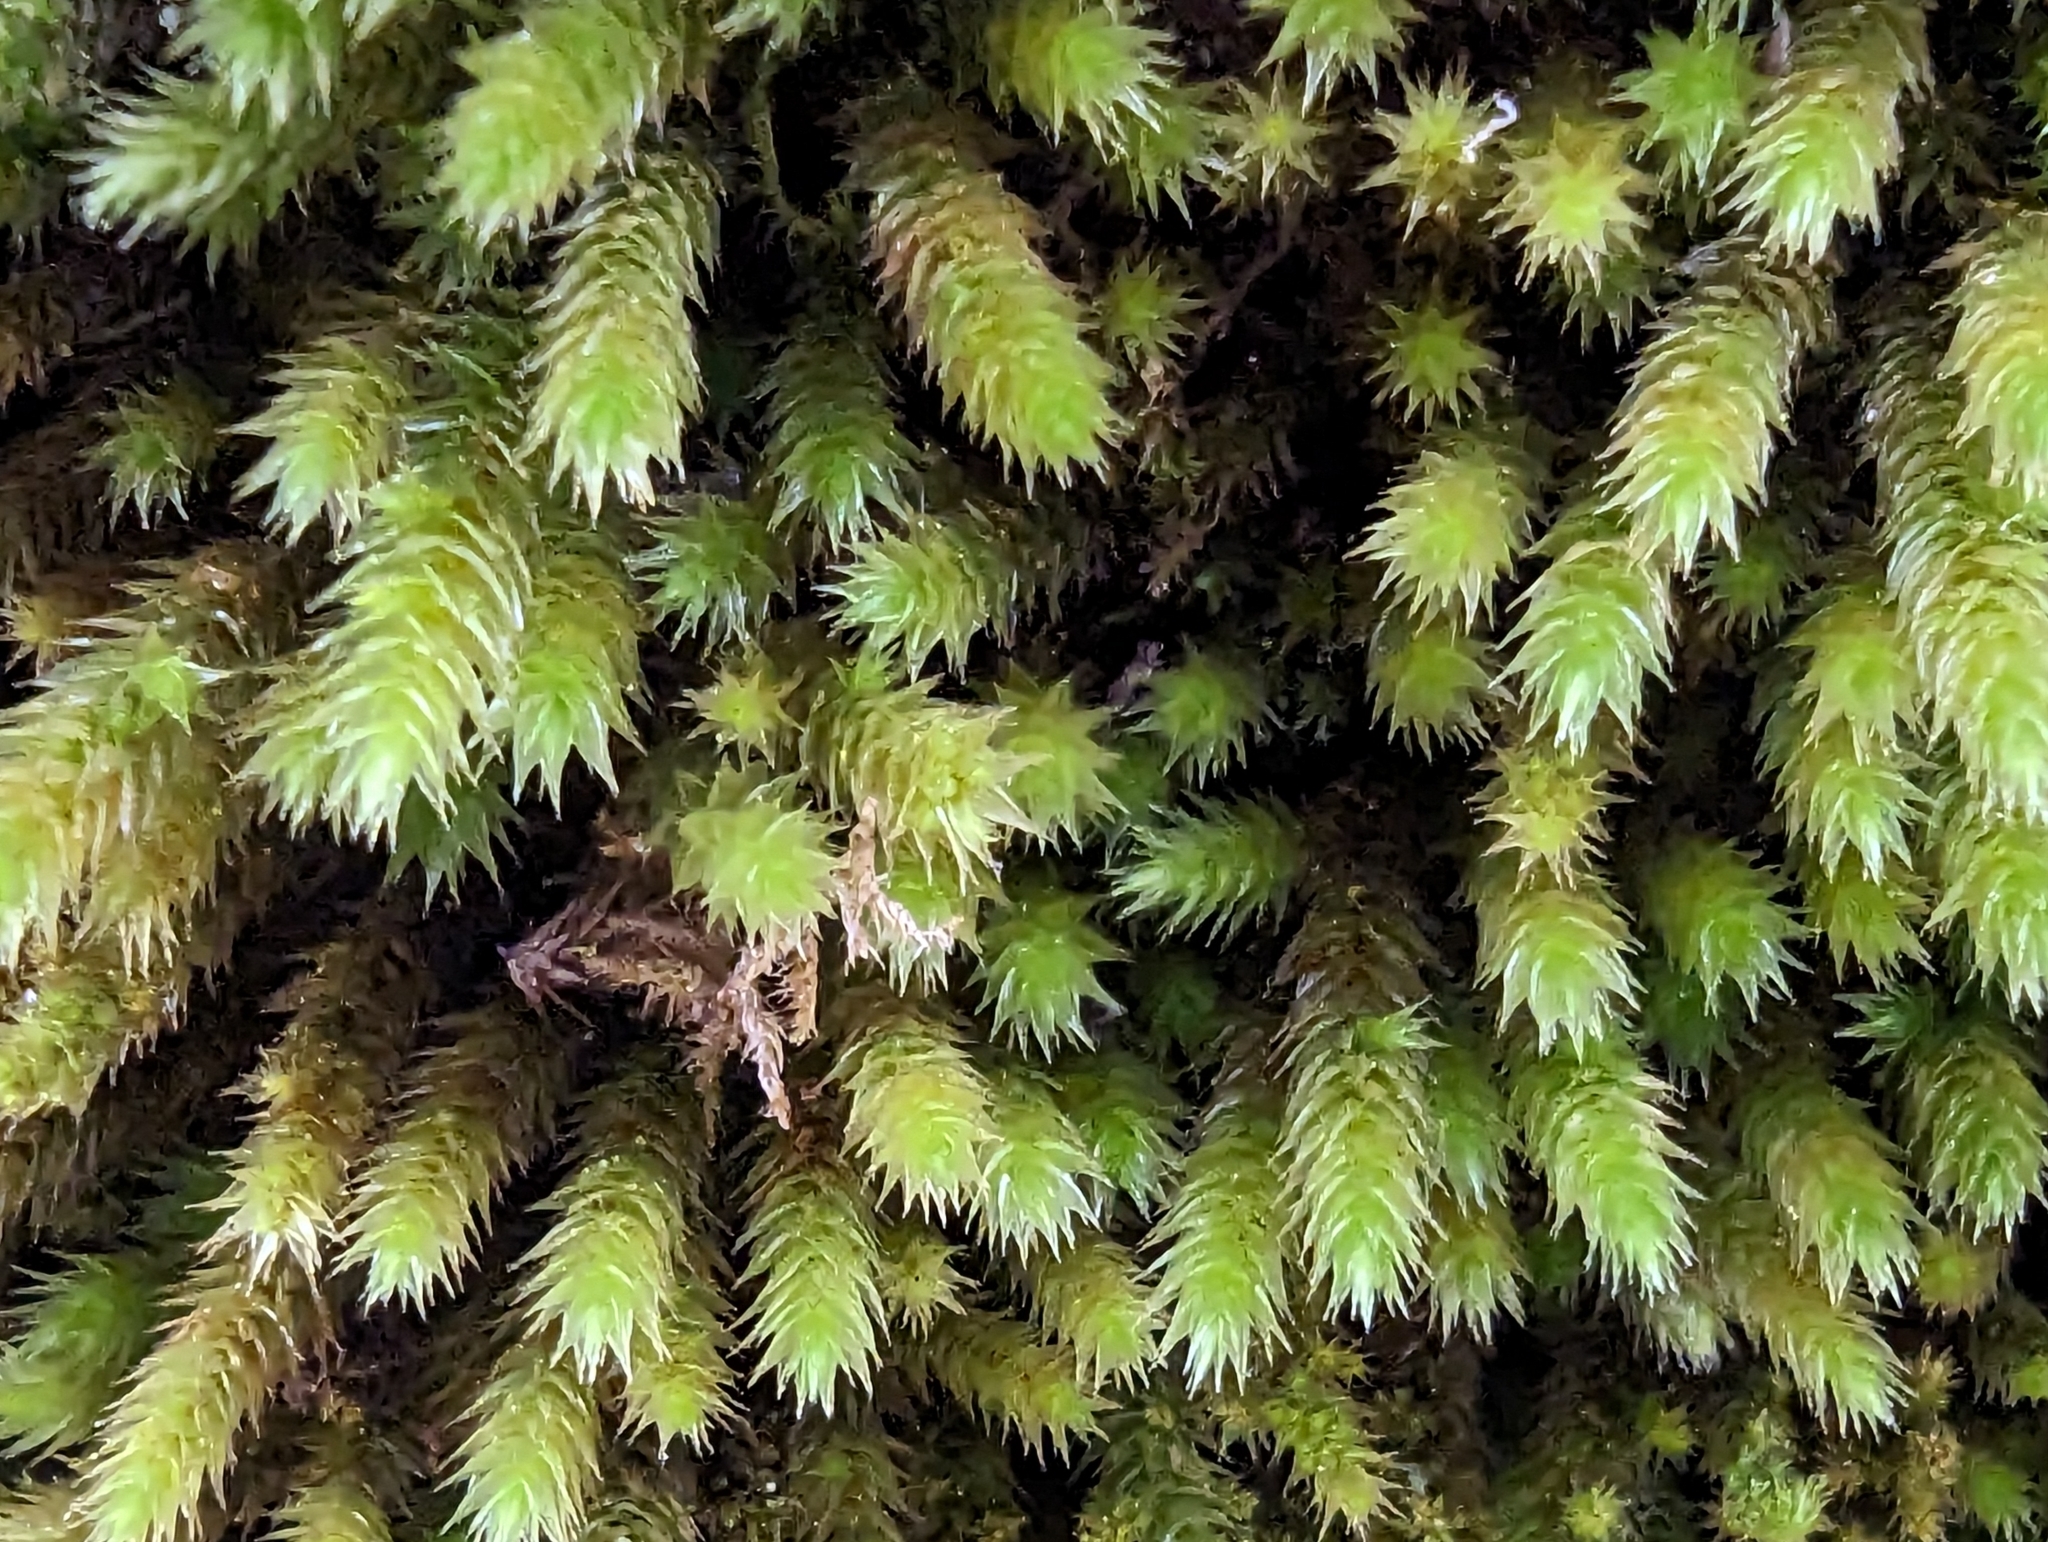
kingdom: Plantae
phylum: Bryophyta
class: Bryopsida
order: Hypnales
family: Leucodontaceae
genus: Leucodon
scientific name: Leucodon sciuroides
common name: Squirrel-tail moss
